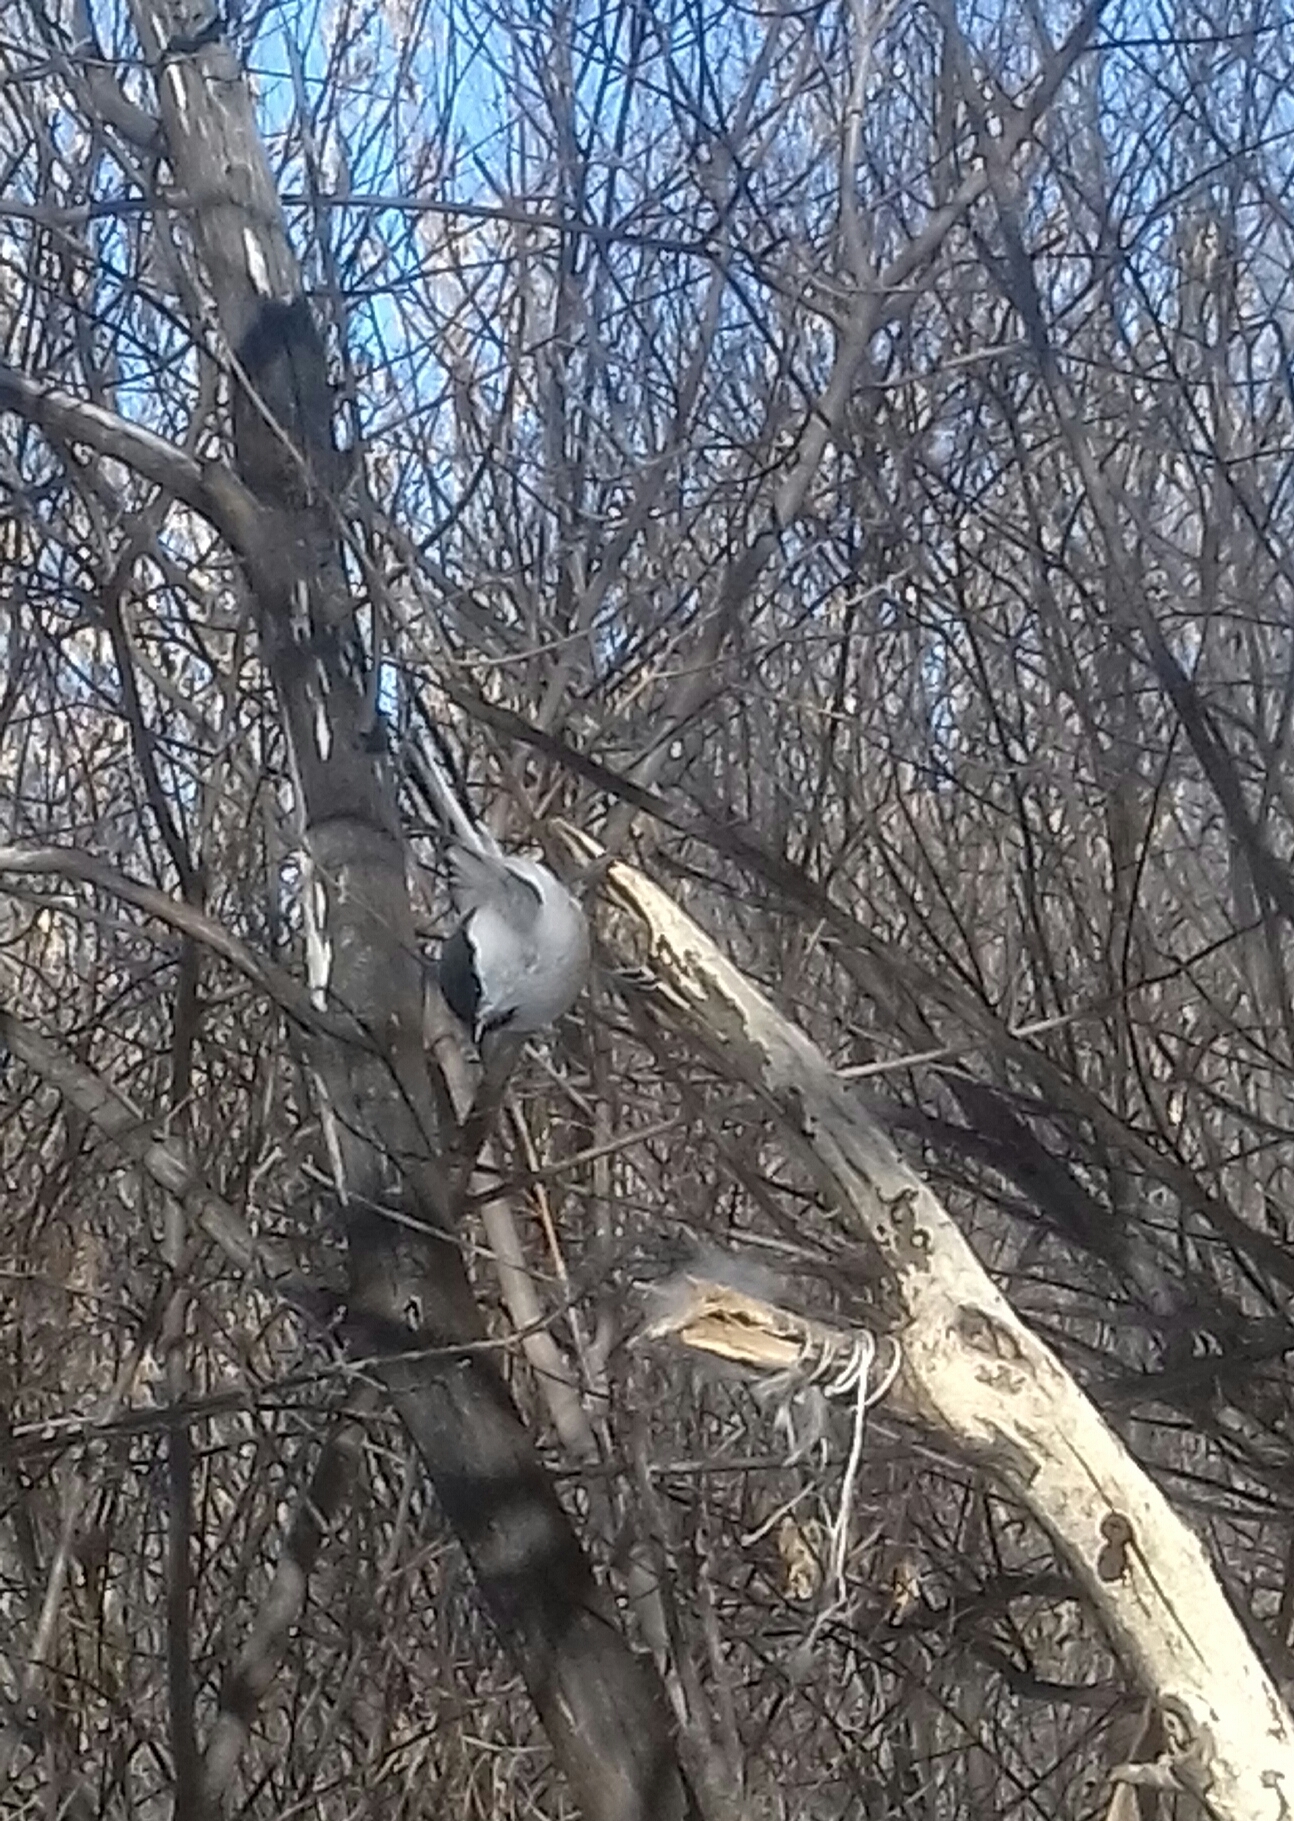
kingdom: Animalia
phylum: Chordata
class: Aves
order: Passeriformes
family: Paridae
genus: Poecile
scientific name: Poecile palustris
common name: Marsh tit
